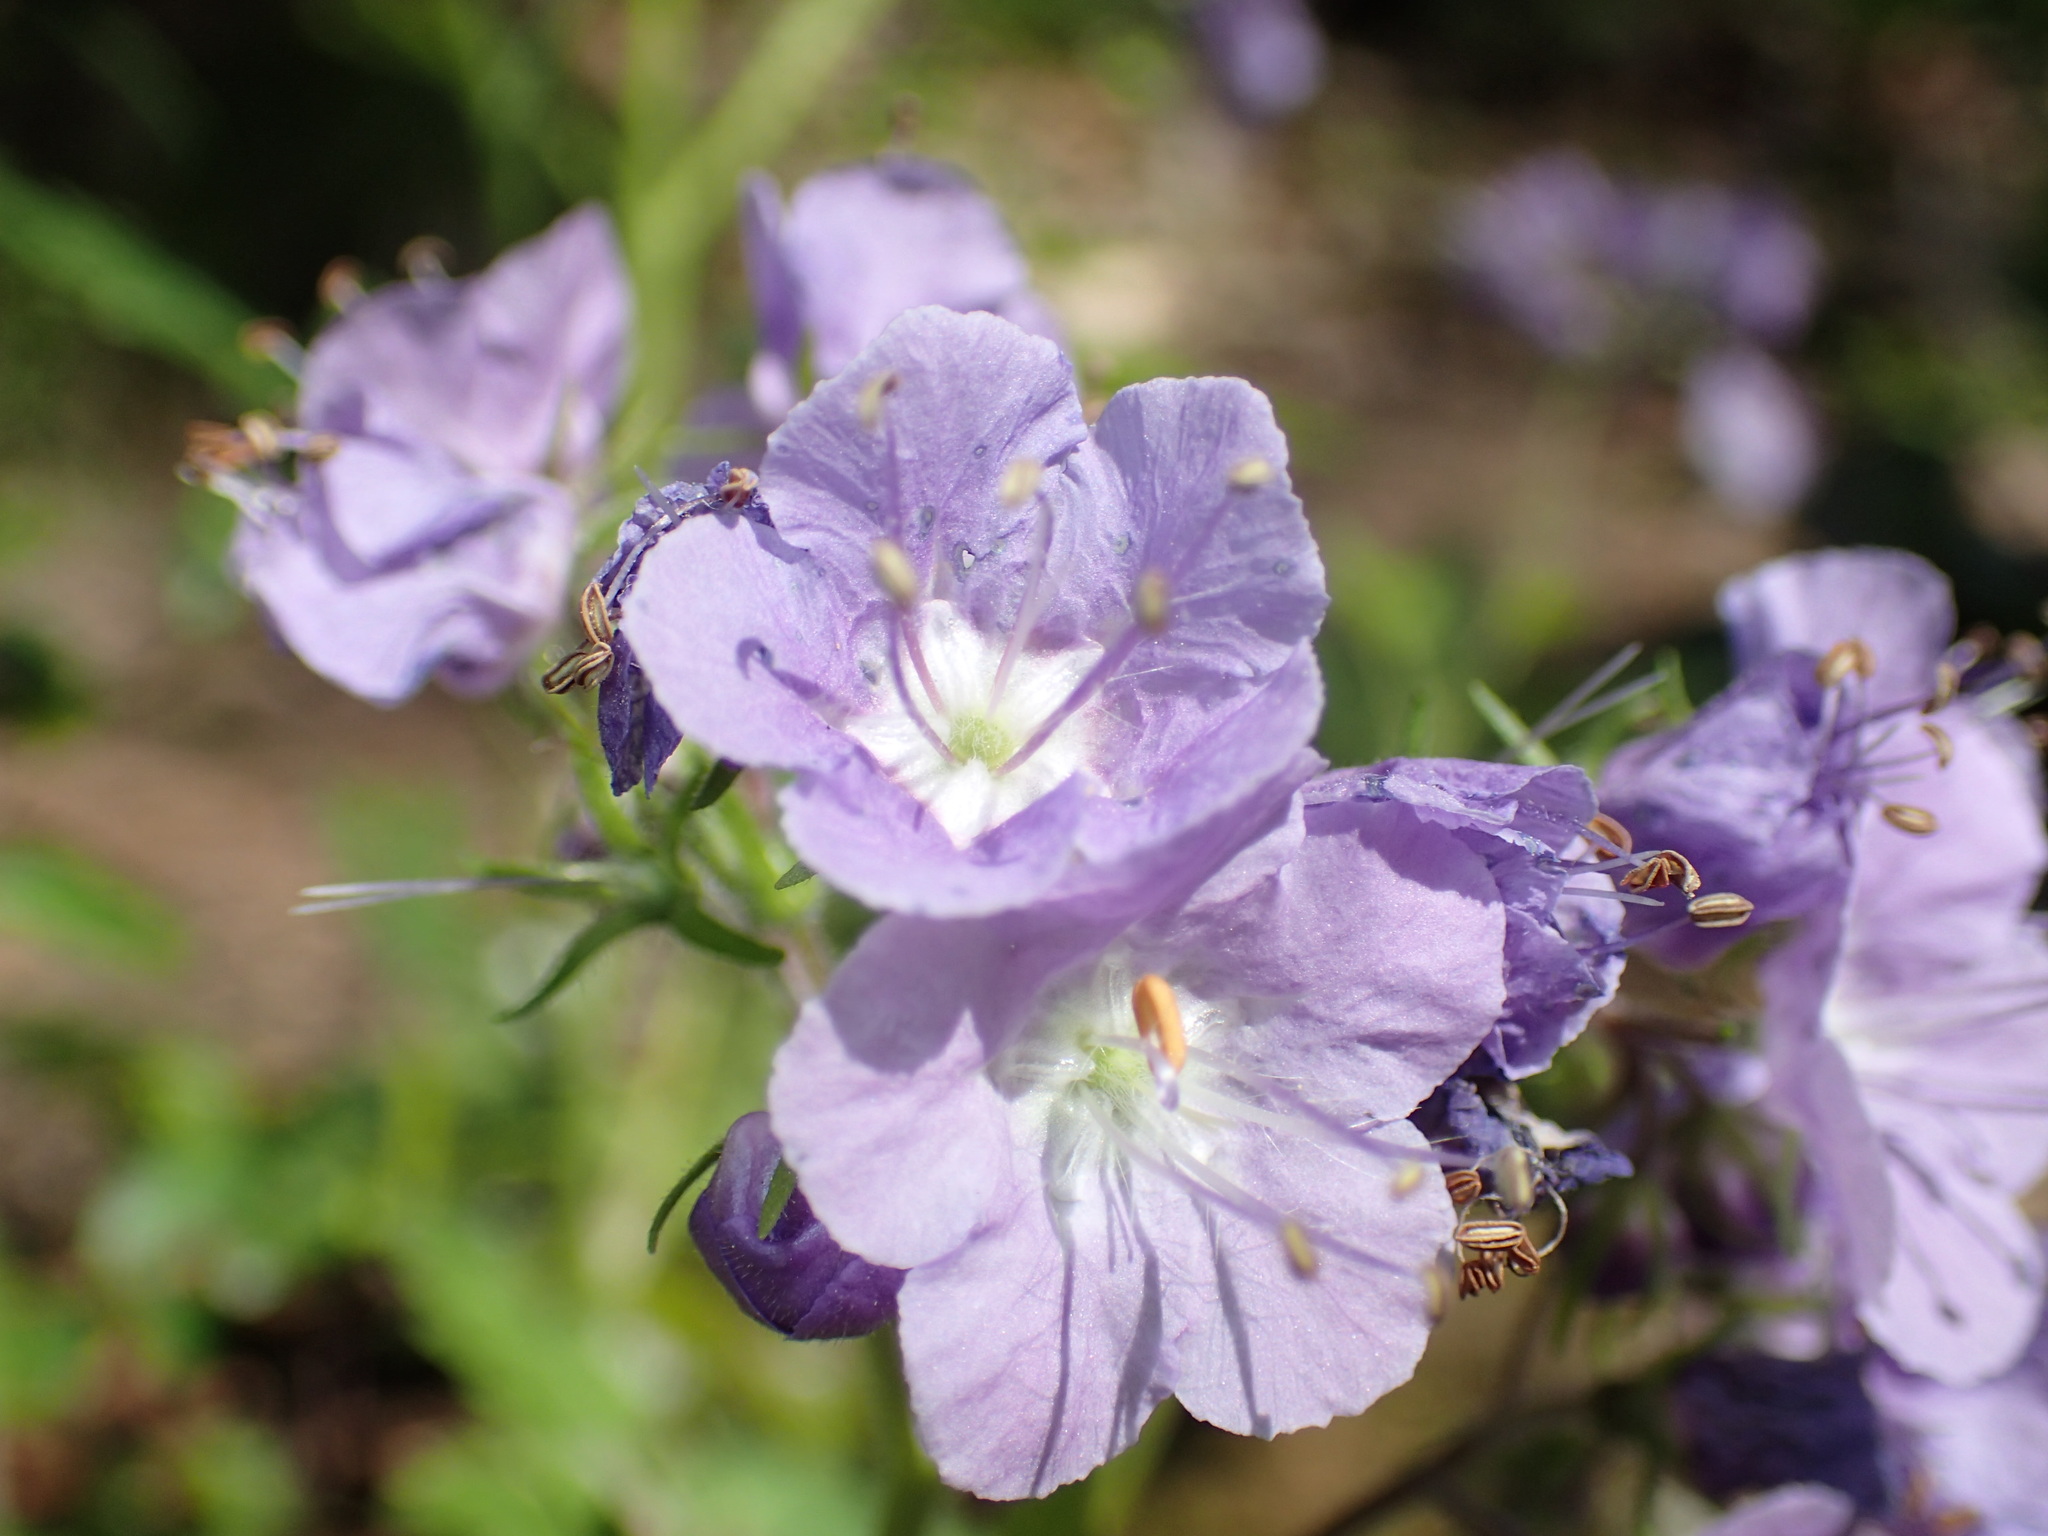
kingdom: Plantae
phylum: Tracheophyta
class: Magnoliopsida
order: Boraginales
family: Hydrophyllaceae
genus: Phacelia
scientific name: Phacelia bipinnatifida
